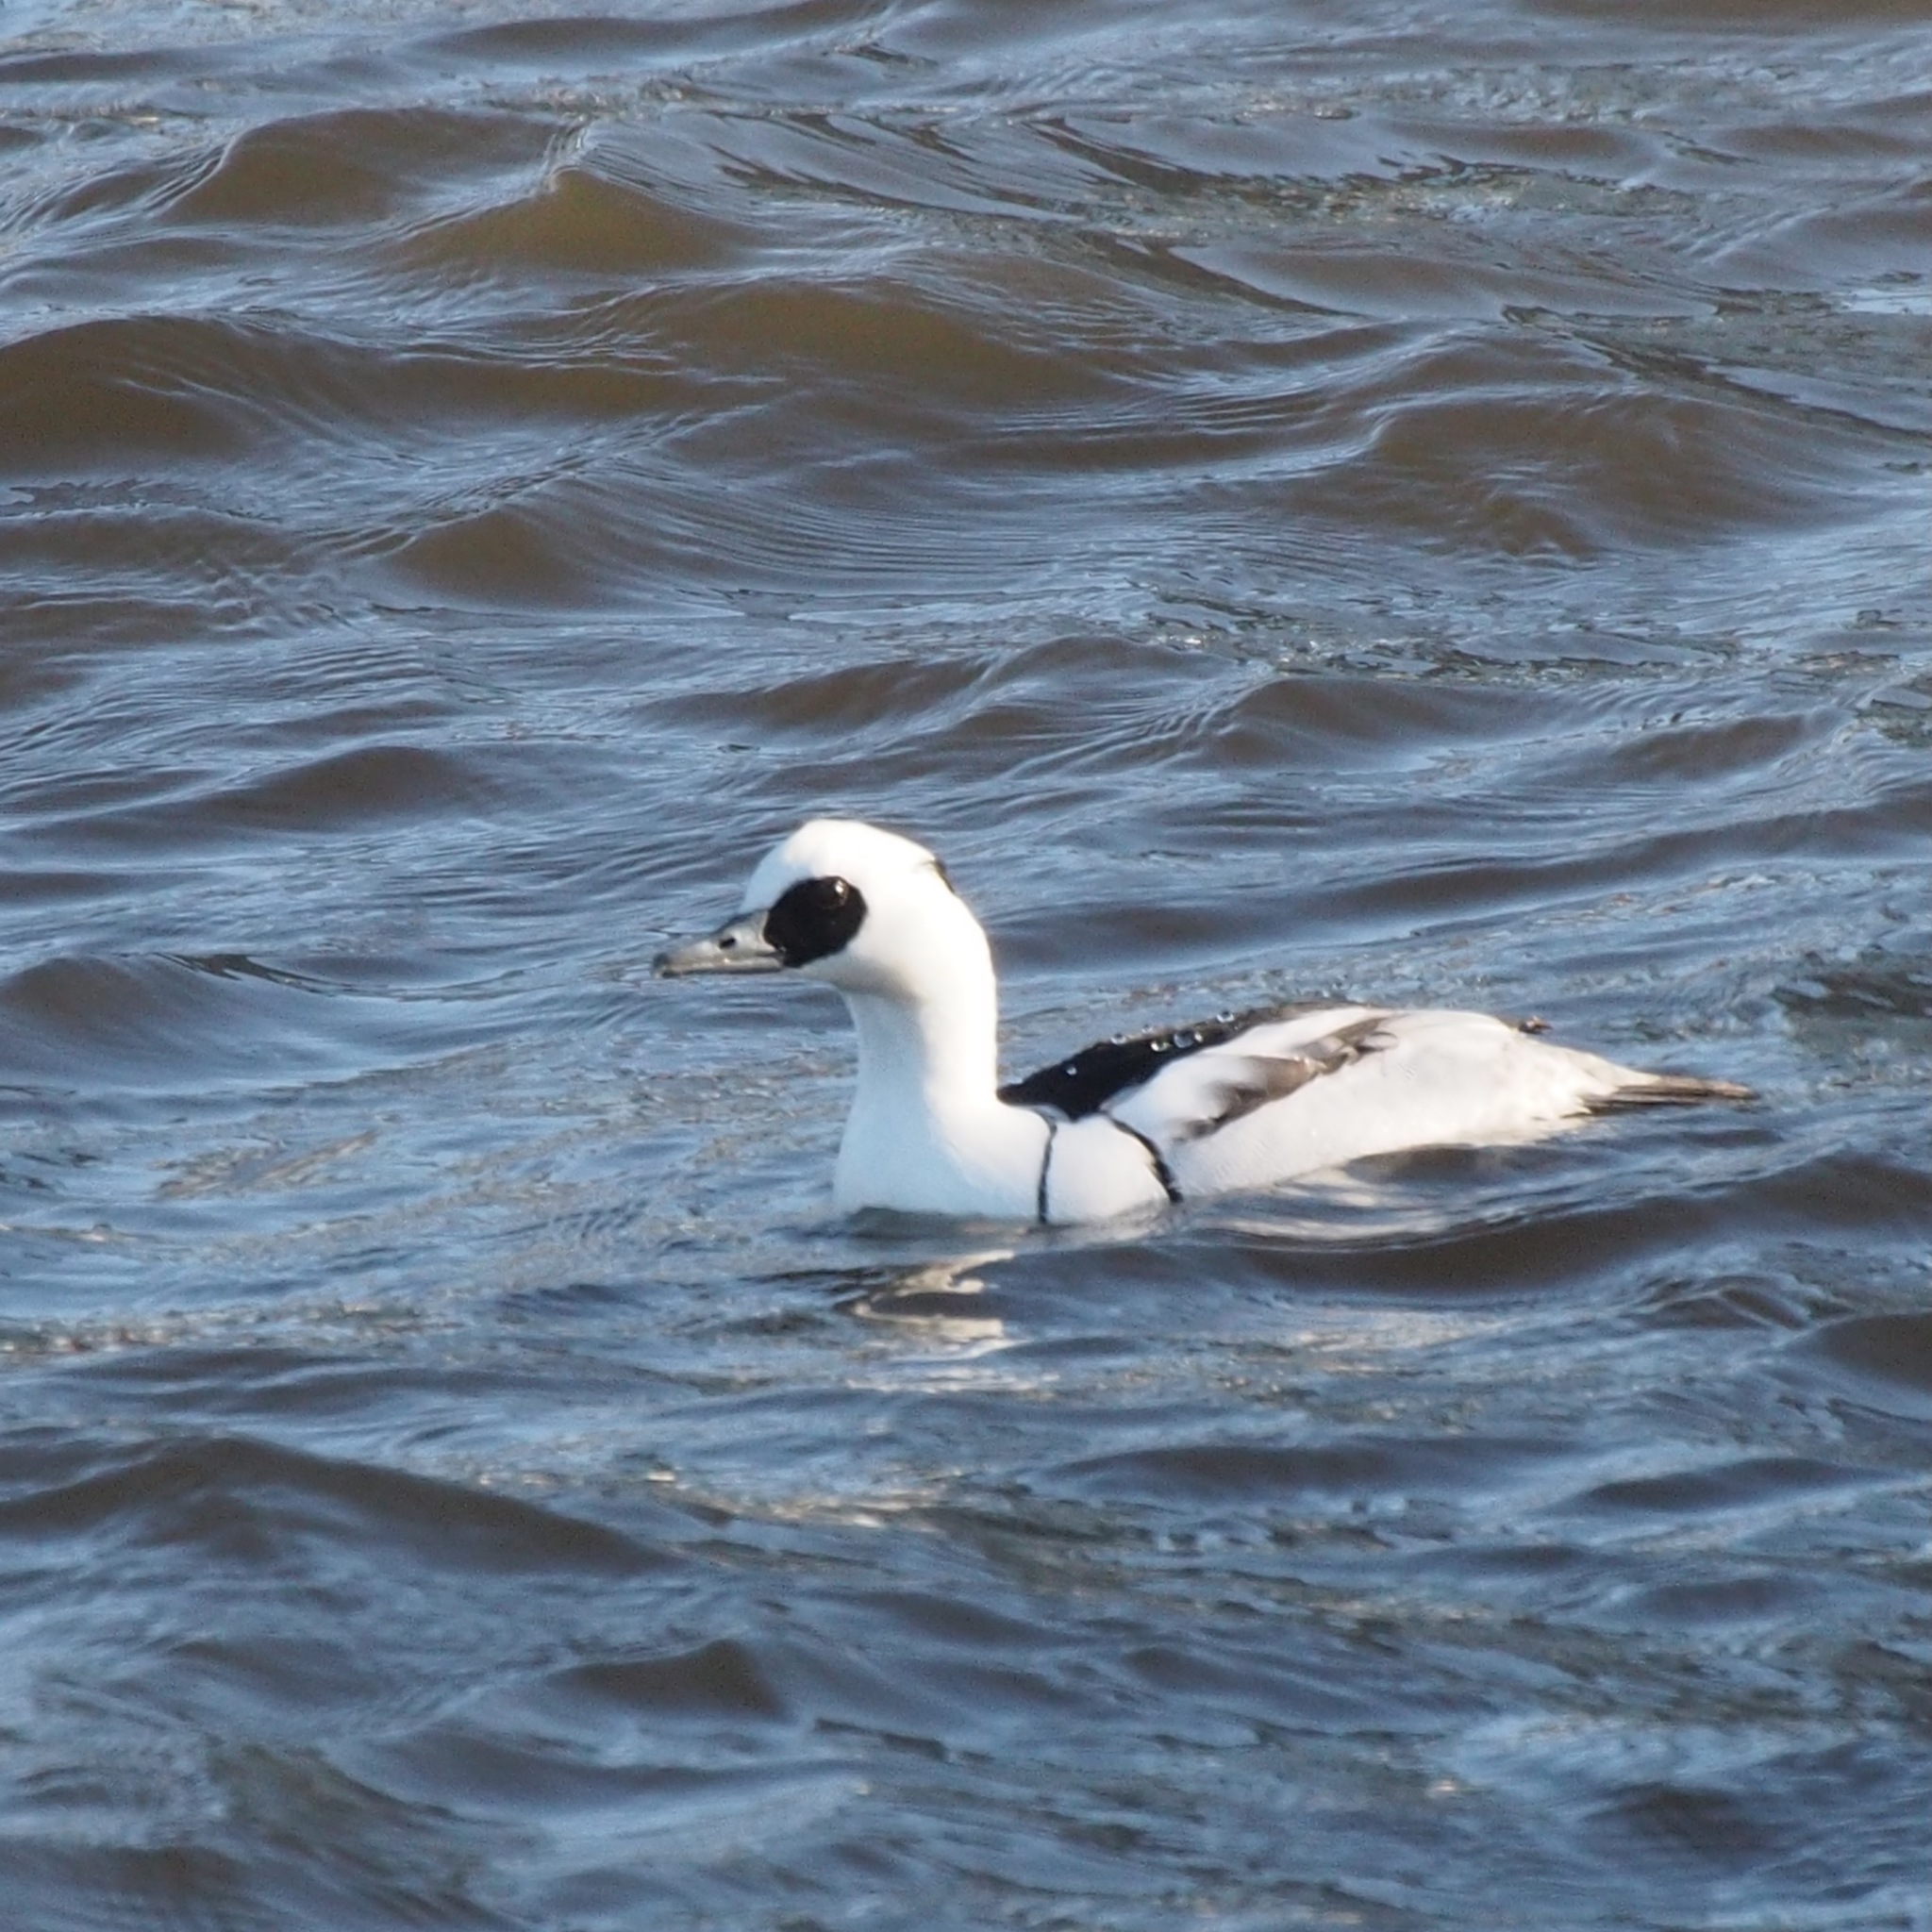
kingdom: Animalia
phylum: Chordata
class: Aves
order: Anseriformes
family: Anatidae
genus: Mergellus
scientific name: Mergellus albellus
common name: Smew
